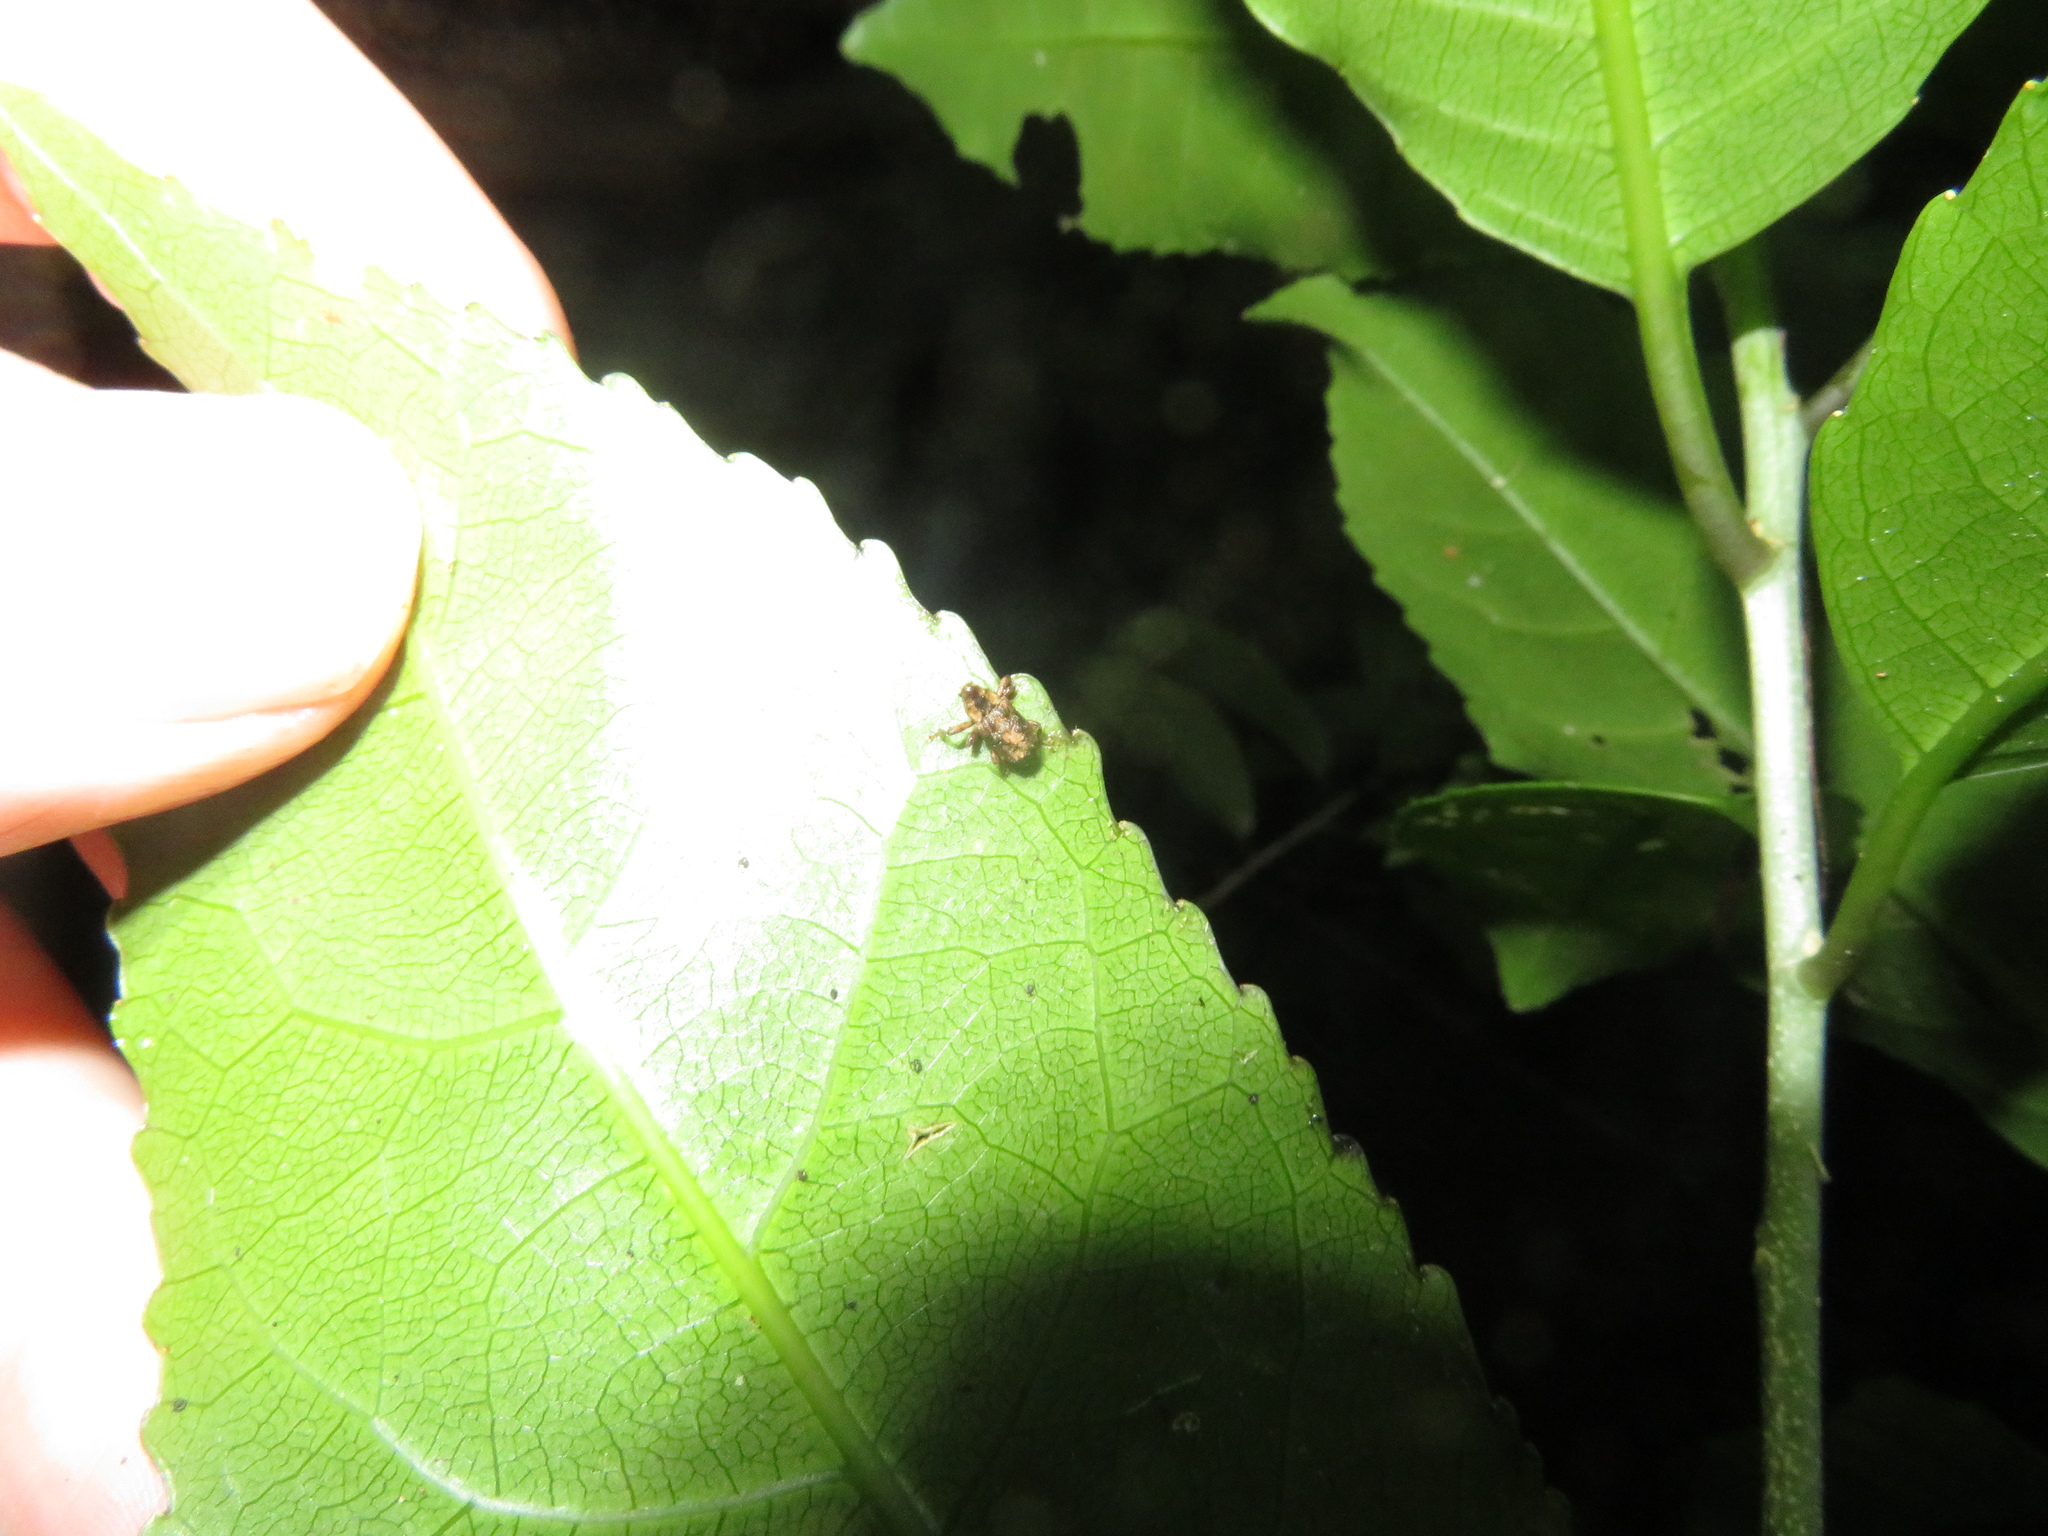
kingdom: Animalia
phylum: Arthropoda
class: Insecta
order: Coleoptera
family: Curculionidae
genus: Mecistostylus
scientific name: Mecistostylus douei
